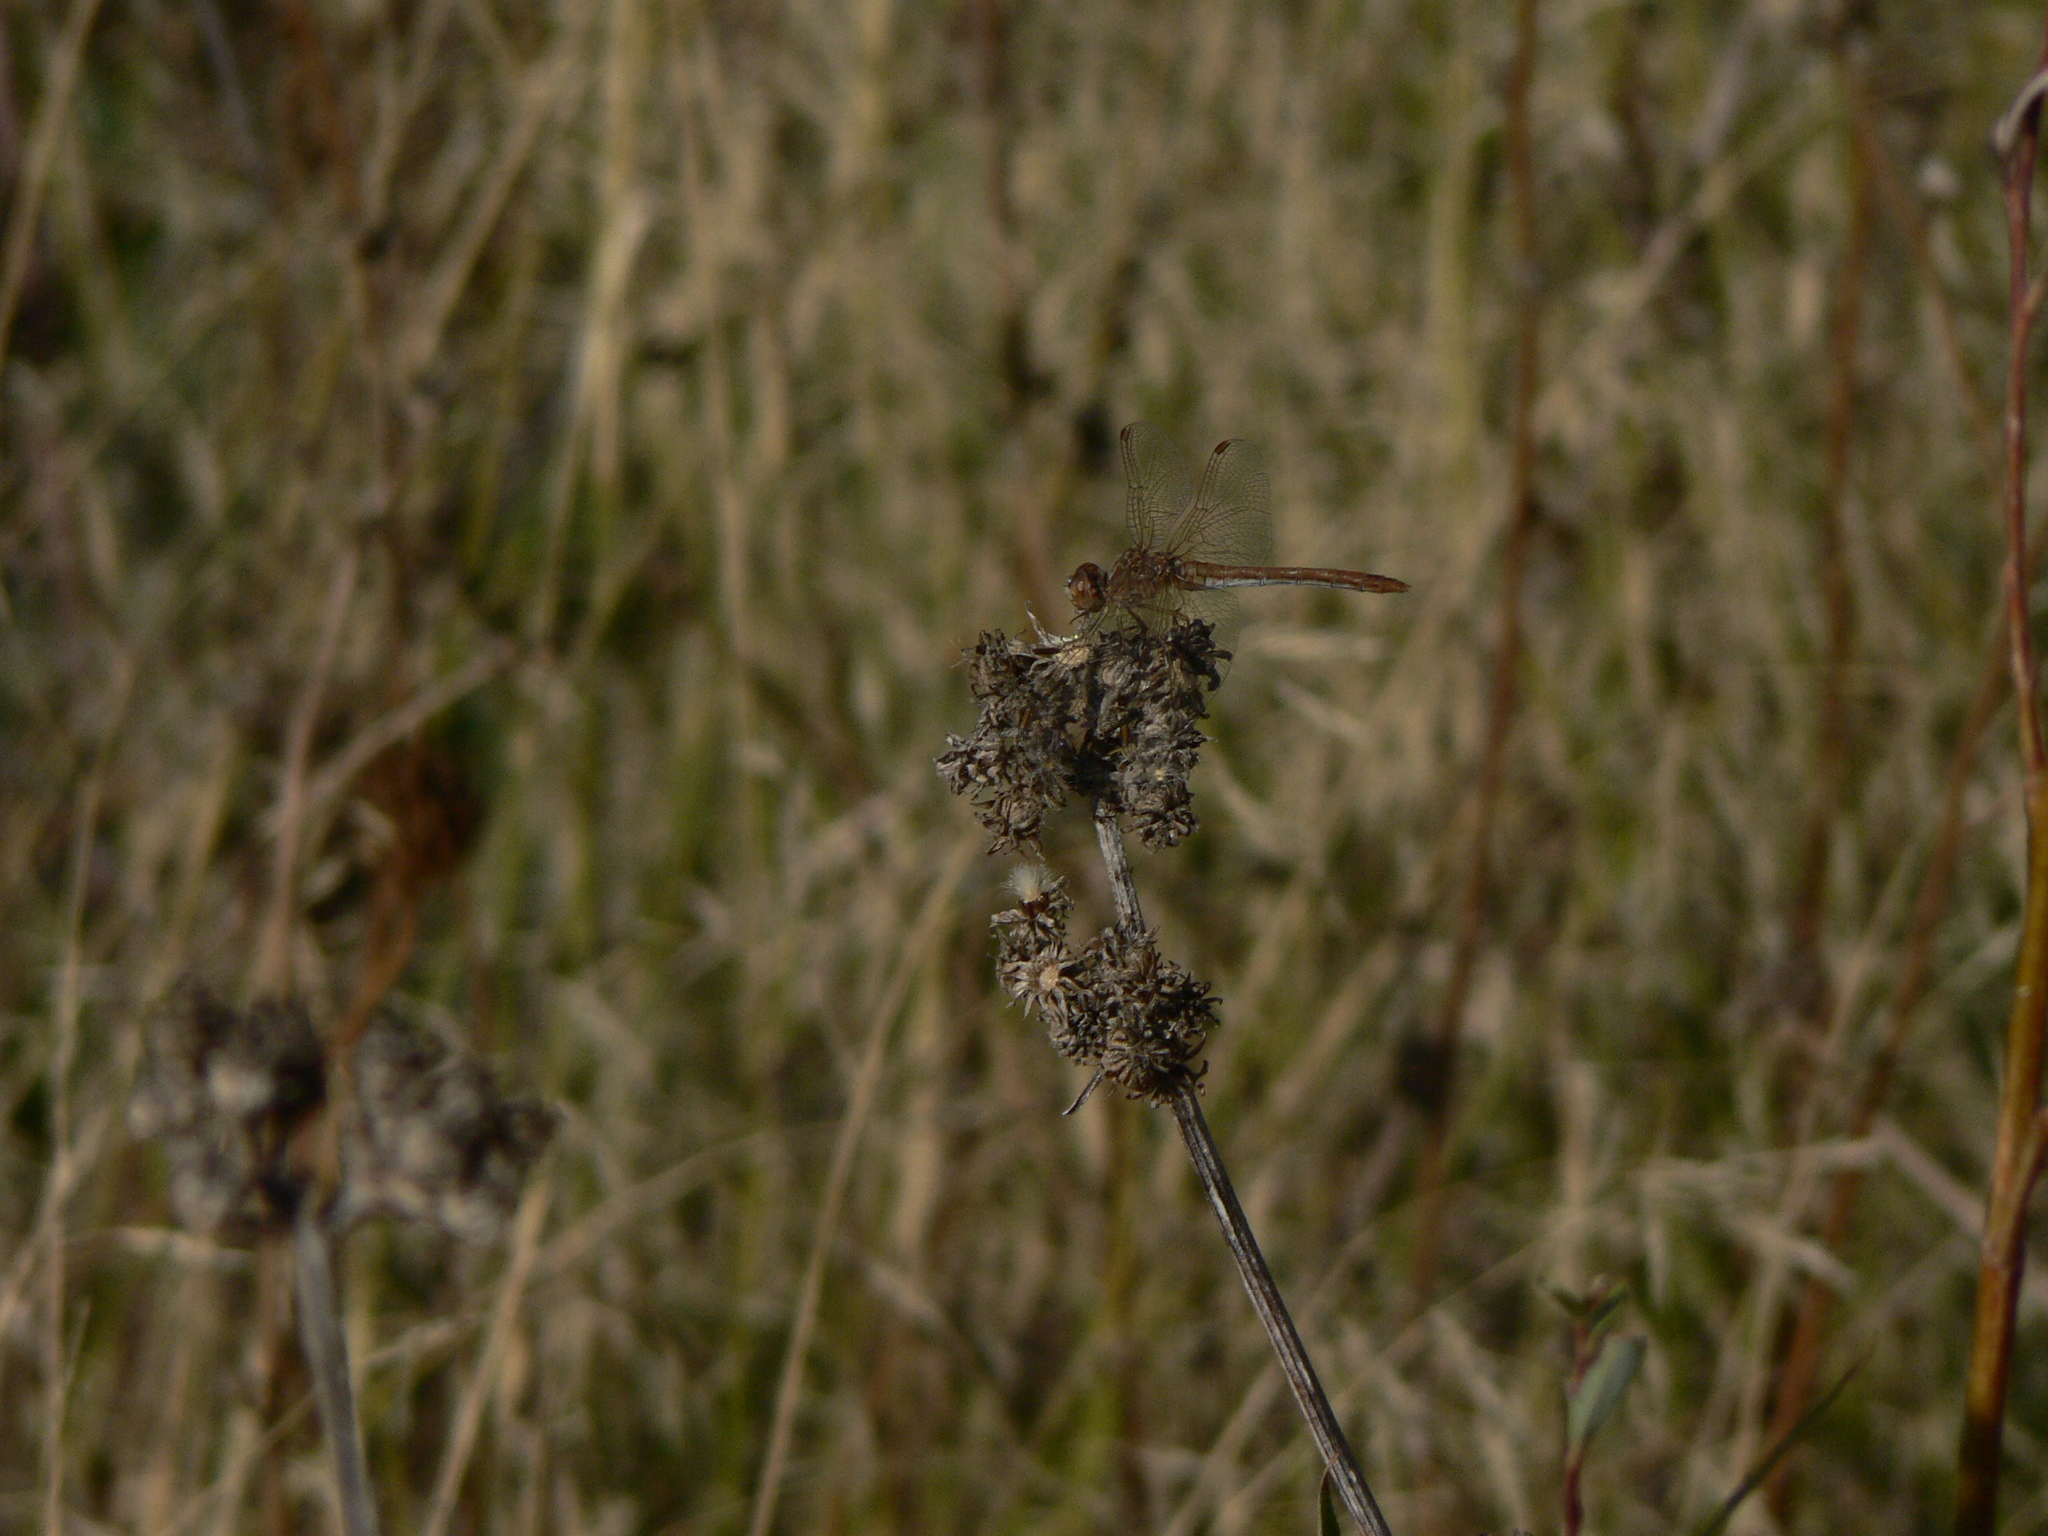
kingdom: Animalia
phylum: Arthropoda
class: Insecta
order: Odonata
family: Libellulidae
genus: Sympetrum
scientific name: Sympetrum meridionale
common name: Southern darter
